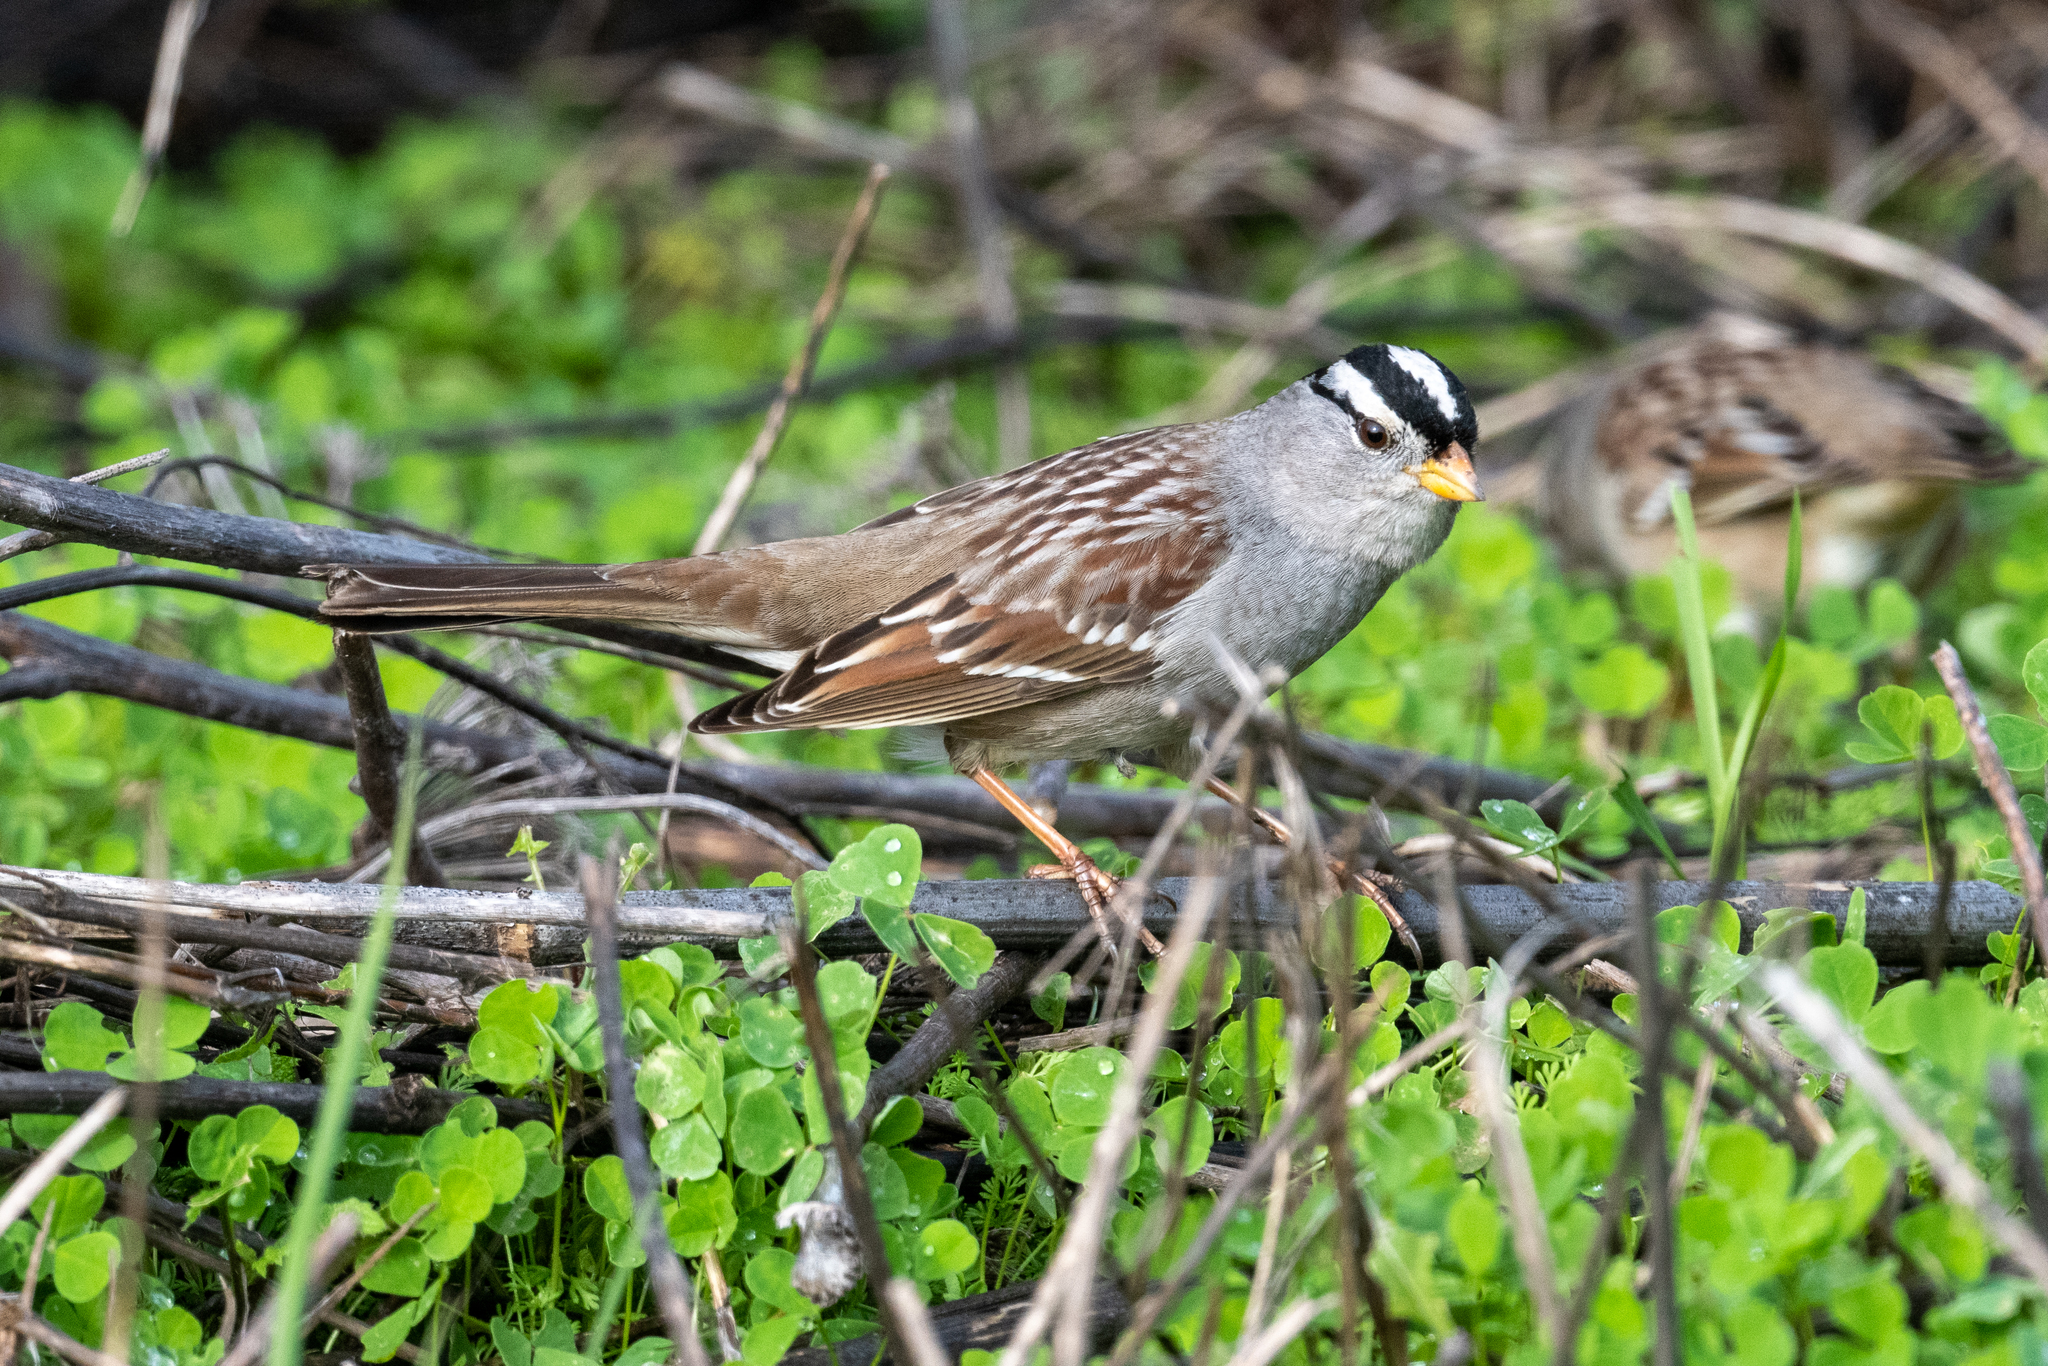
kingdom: Animalia
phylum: Chordata
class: Aves
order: Passeriformes
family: Passerellidae
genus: Zonotrichia
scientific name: Zonotrichia leucophrys
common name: White-crowned sparrow
